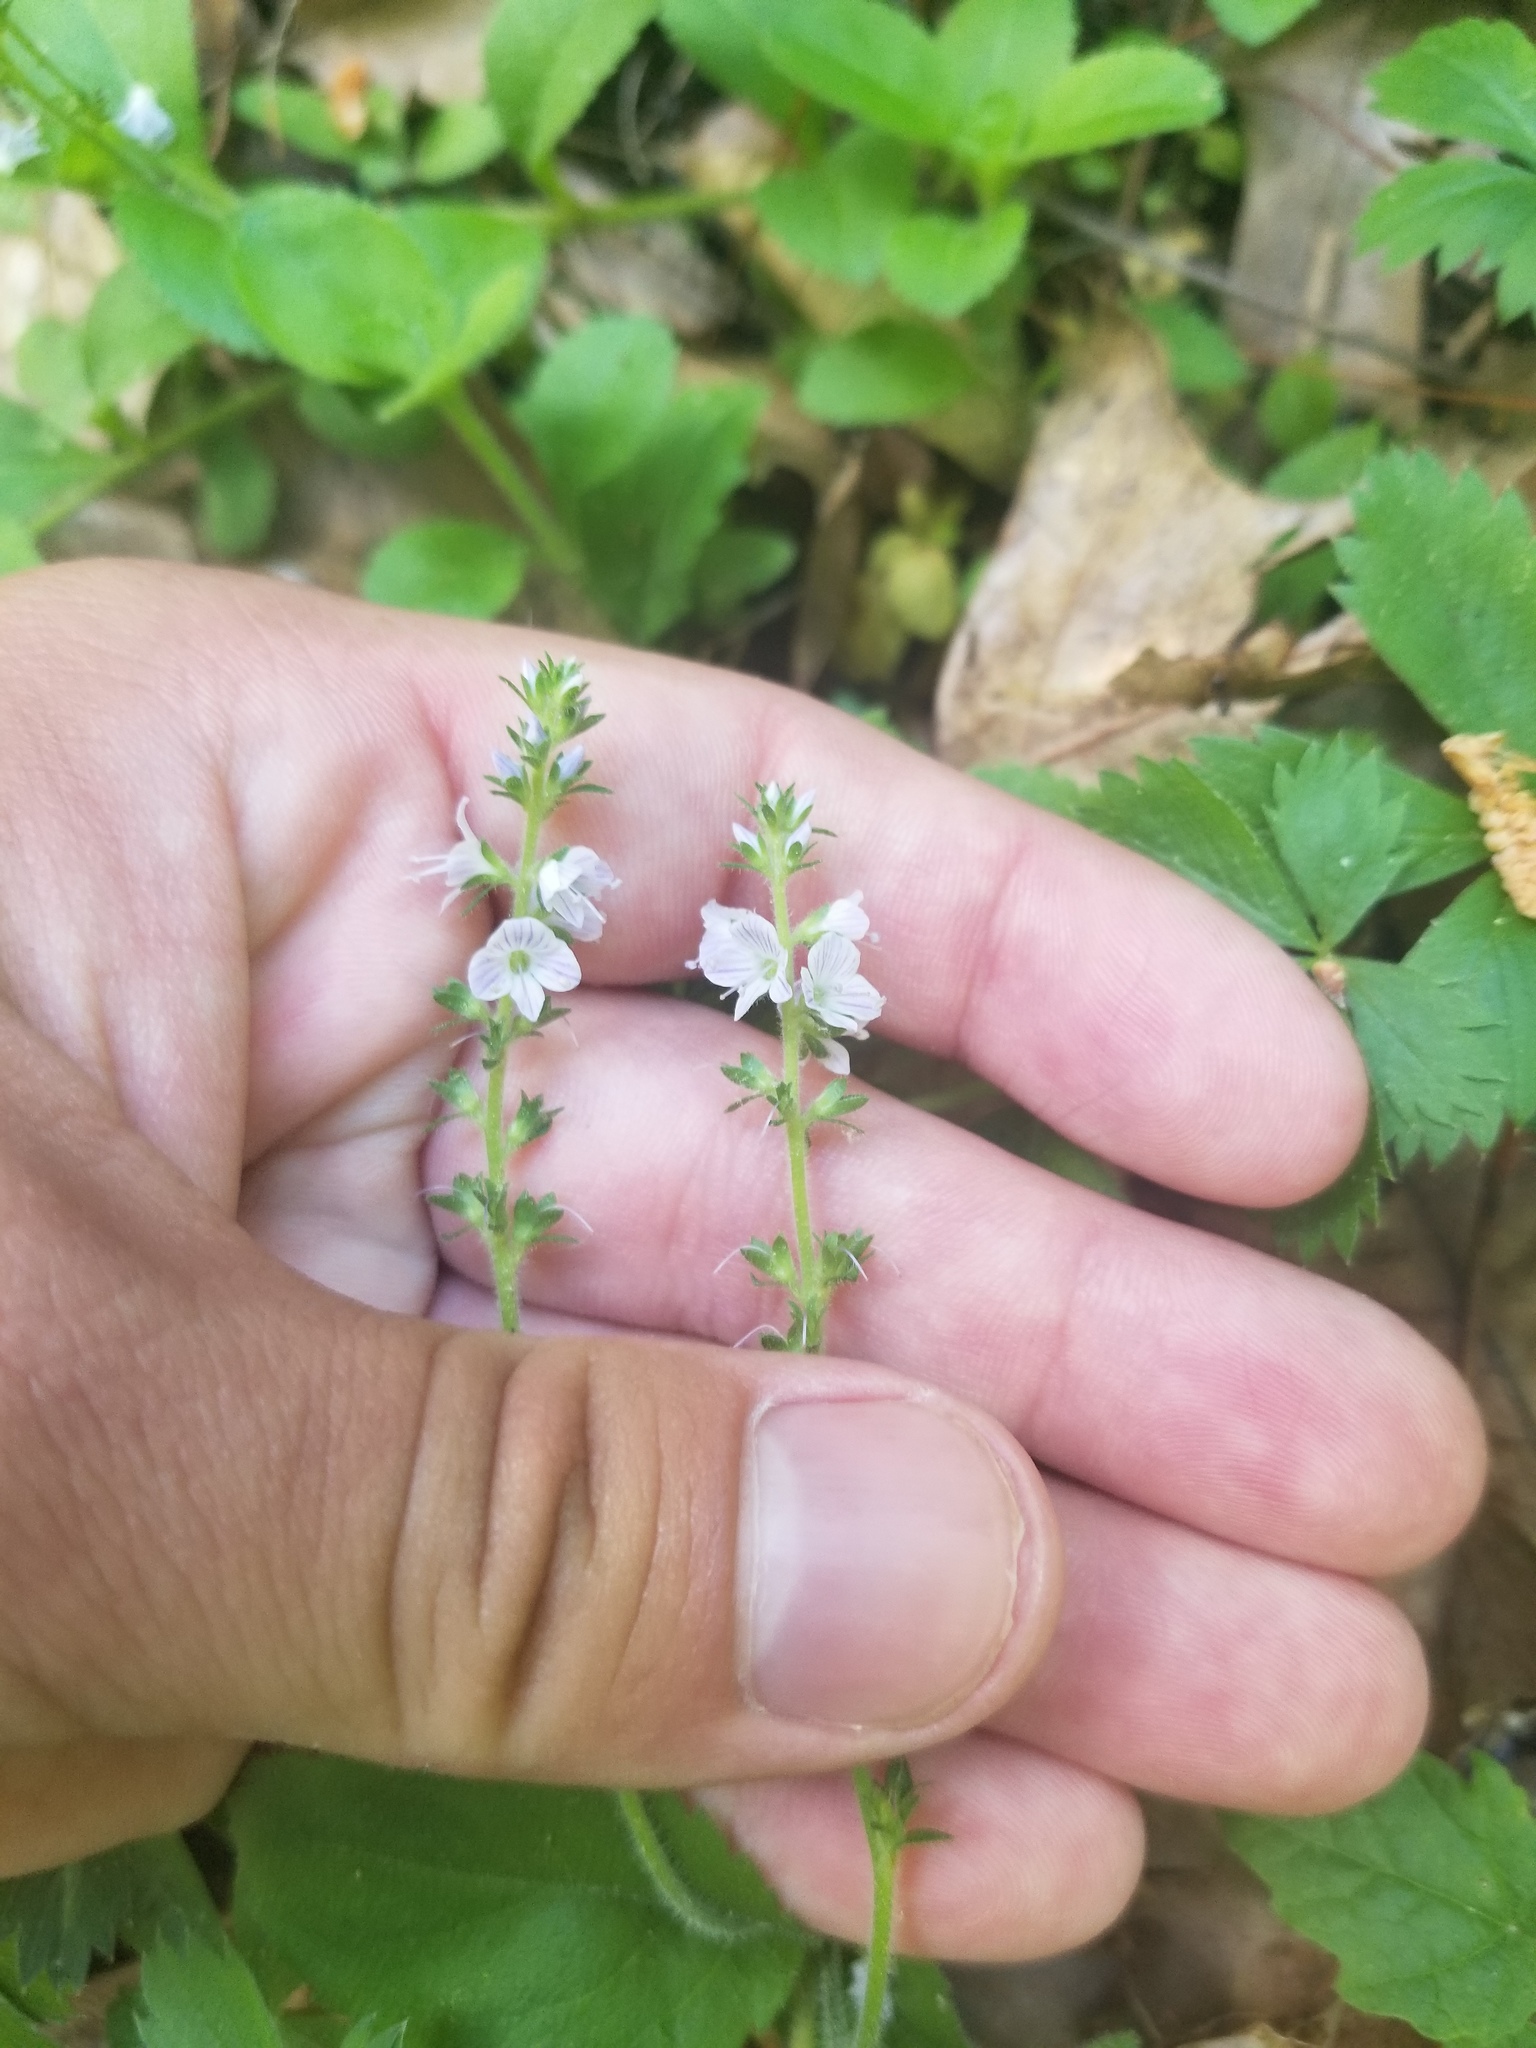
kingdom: Plantae
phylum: Tracheophyta
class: Magnoliopsida
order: Lamiales
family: Plantaginaceae
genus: Veronica
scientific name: Veronica officinalis
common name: Common speedwell
